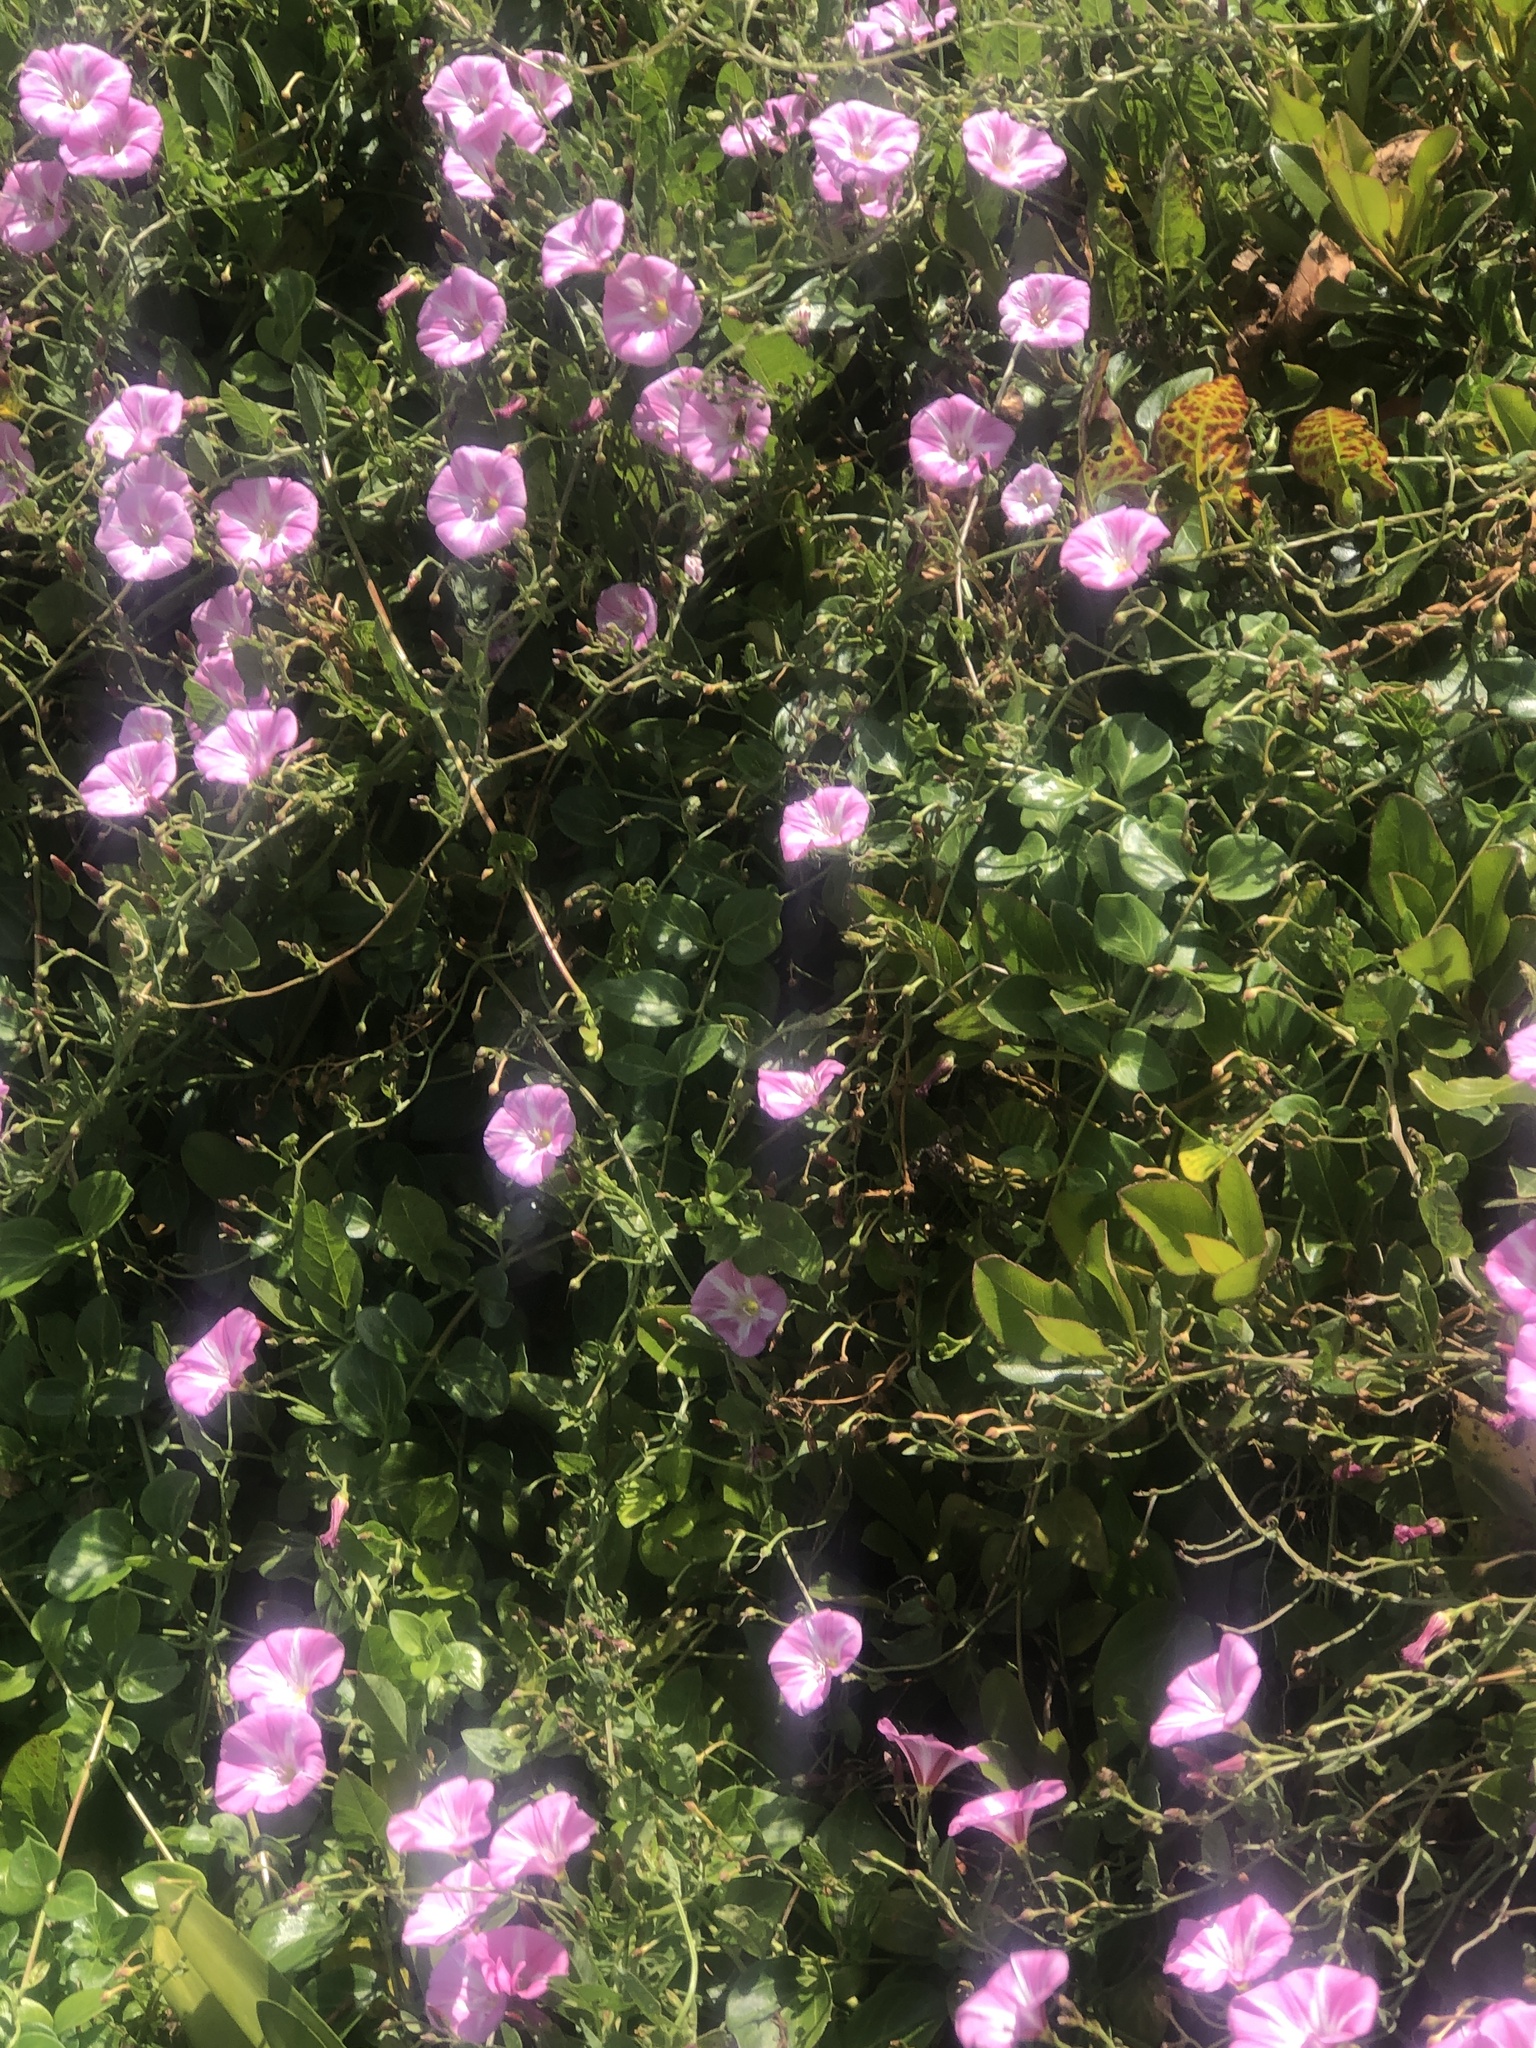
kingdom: Plantae
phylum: Tracheophyta
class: Magnoliopsida
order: Solanales
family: Convolvulaceae
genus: Convolvulus
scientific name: Convolvulus arvensis
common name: Field bindweed
